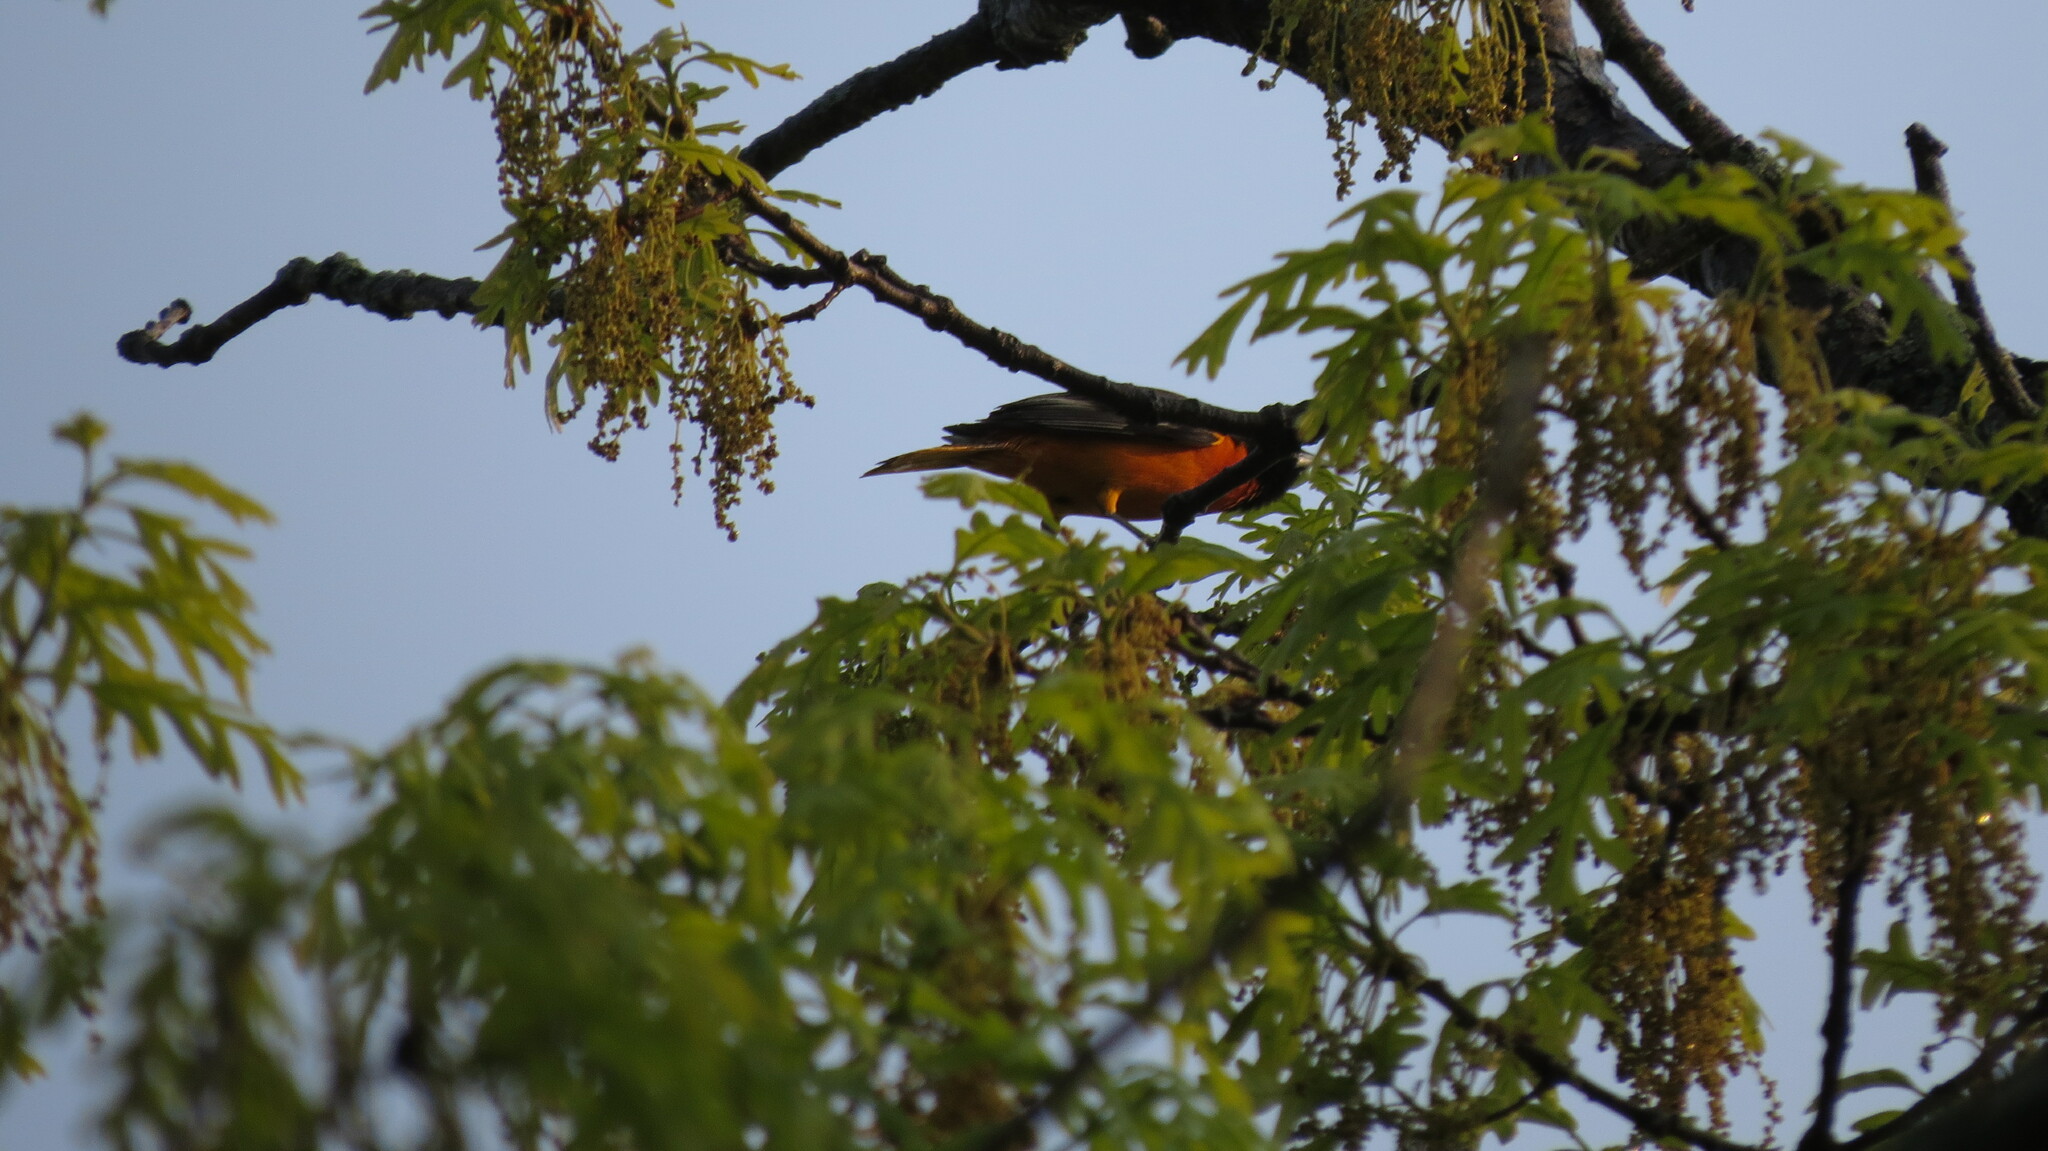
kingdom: Animalia
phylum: Chordata
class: Aves
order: Passeriformes
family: Icteridae
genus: Icterus
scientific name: Icterus galbula
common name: Baltimore oriole
